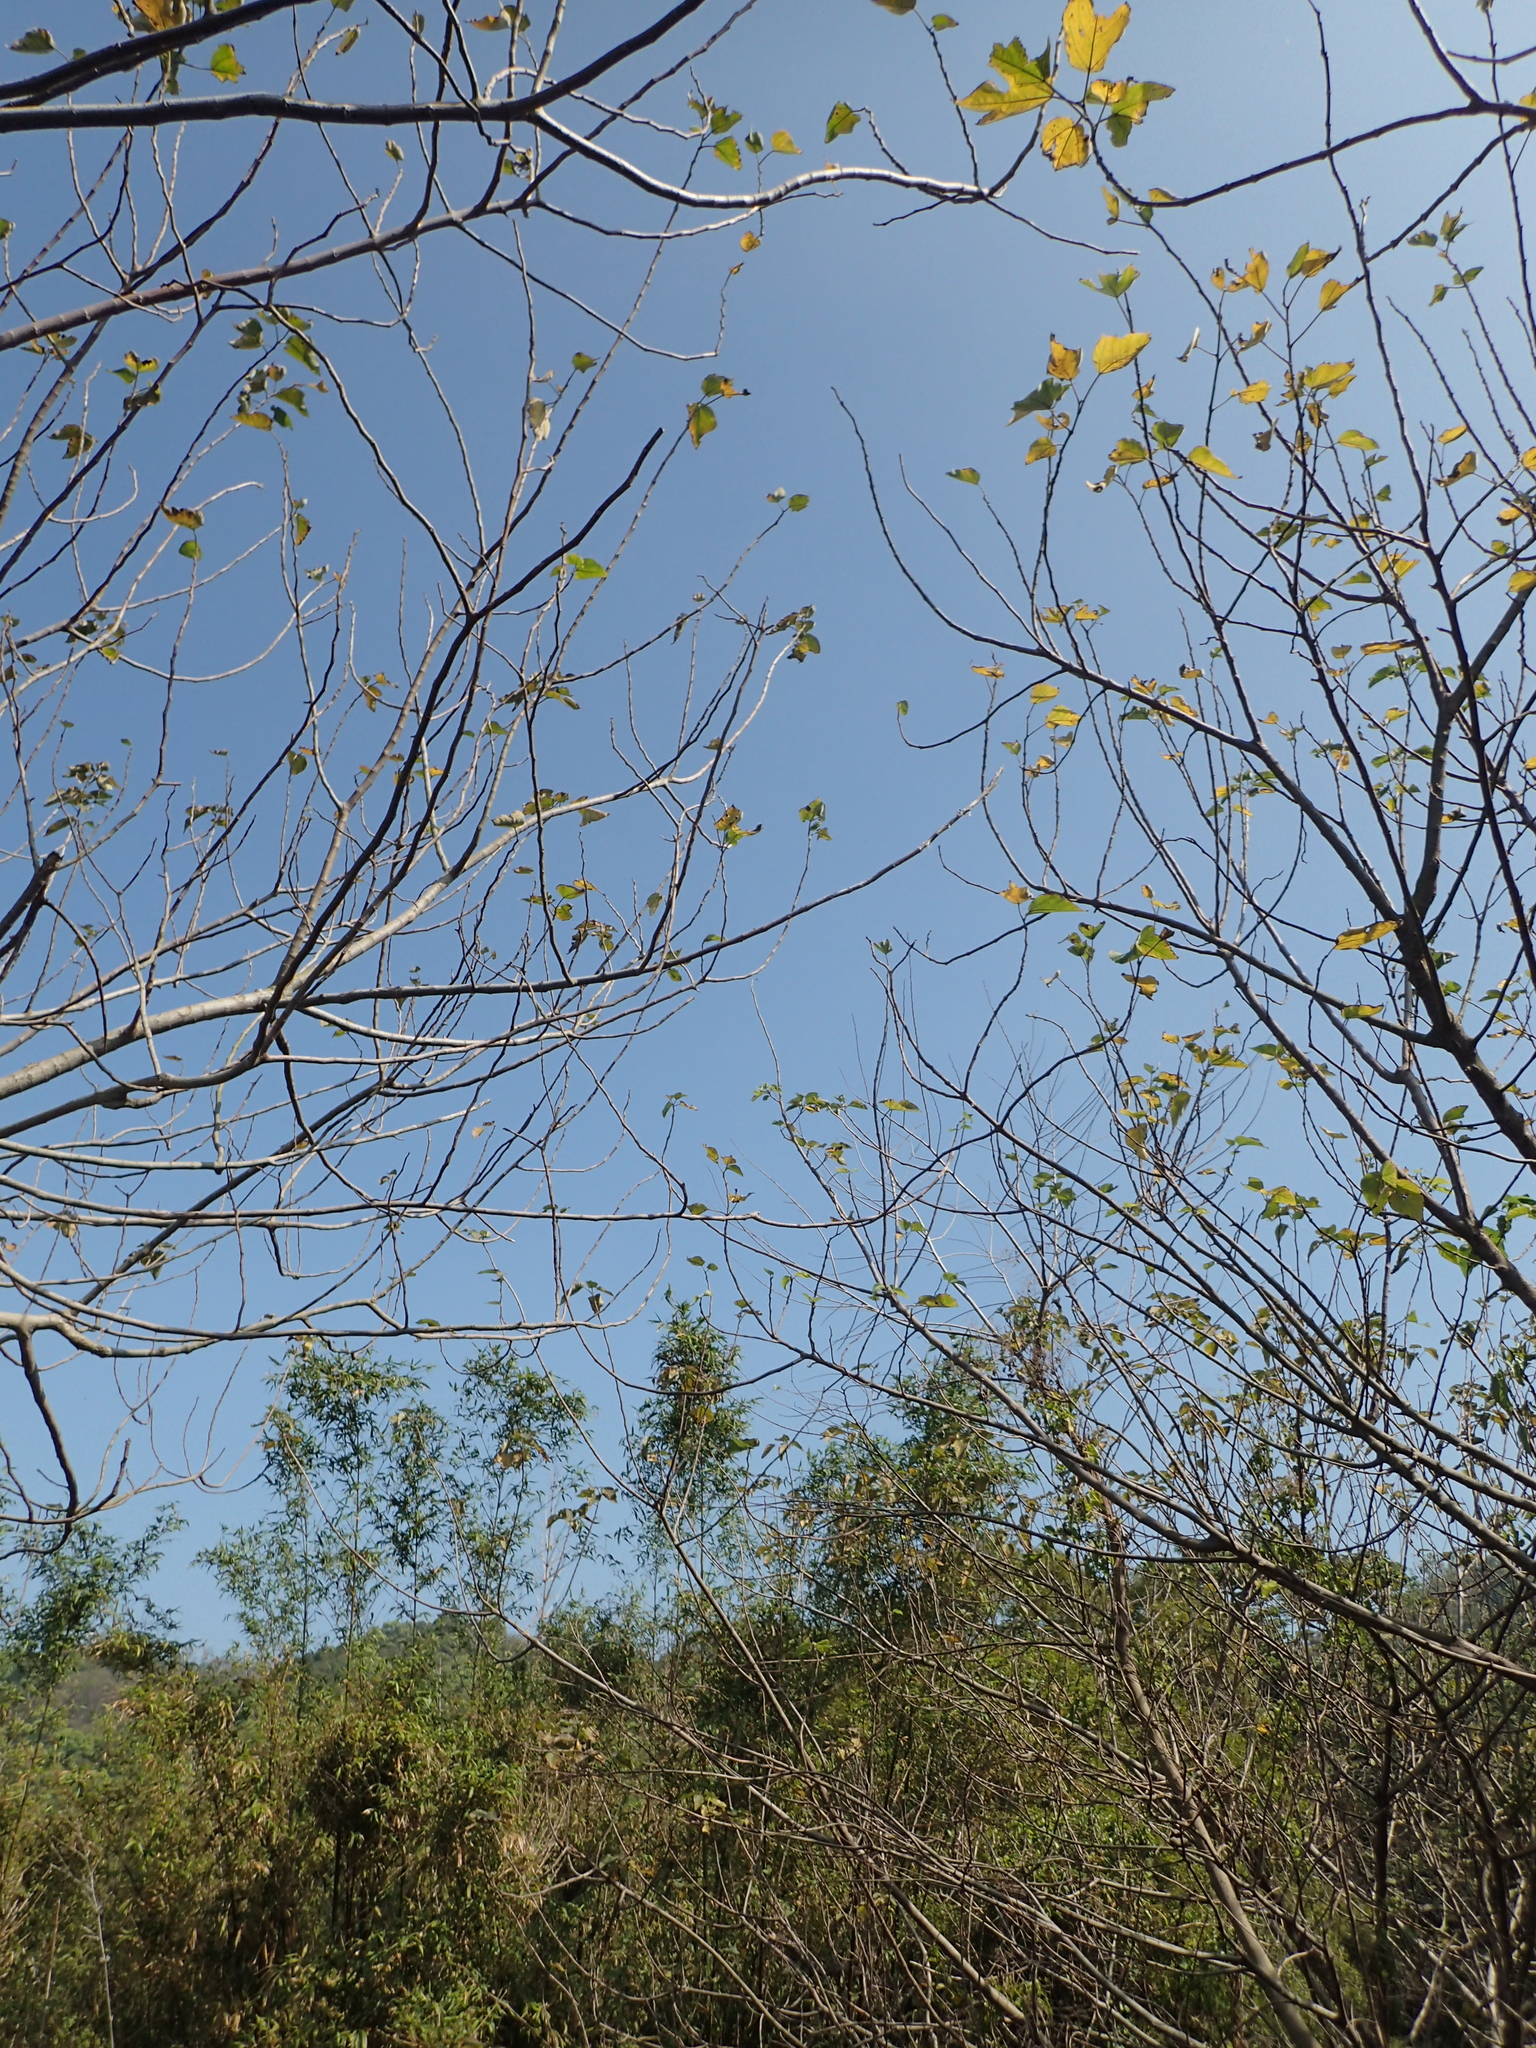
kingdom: Plantae
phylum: Tracheophyta
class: Magnoliopsida
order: Rosales
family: Moraceae
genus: Broussonetia
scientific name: Broussonetia papyrifera
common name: Paper mulberry
